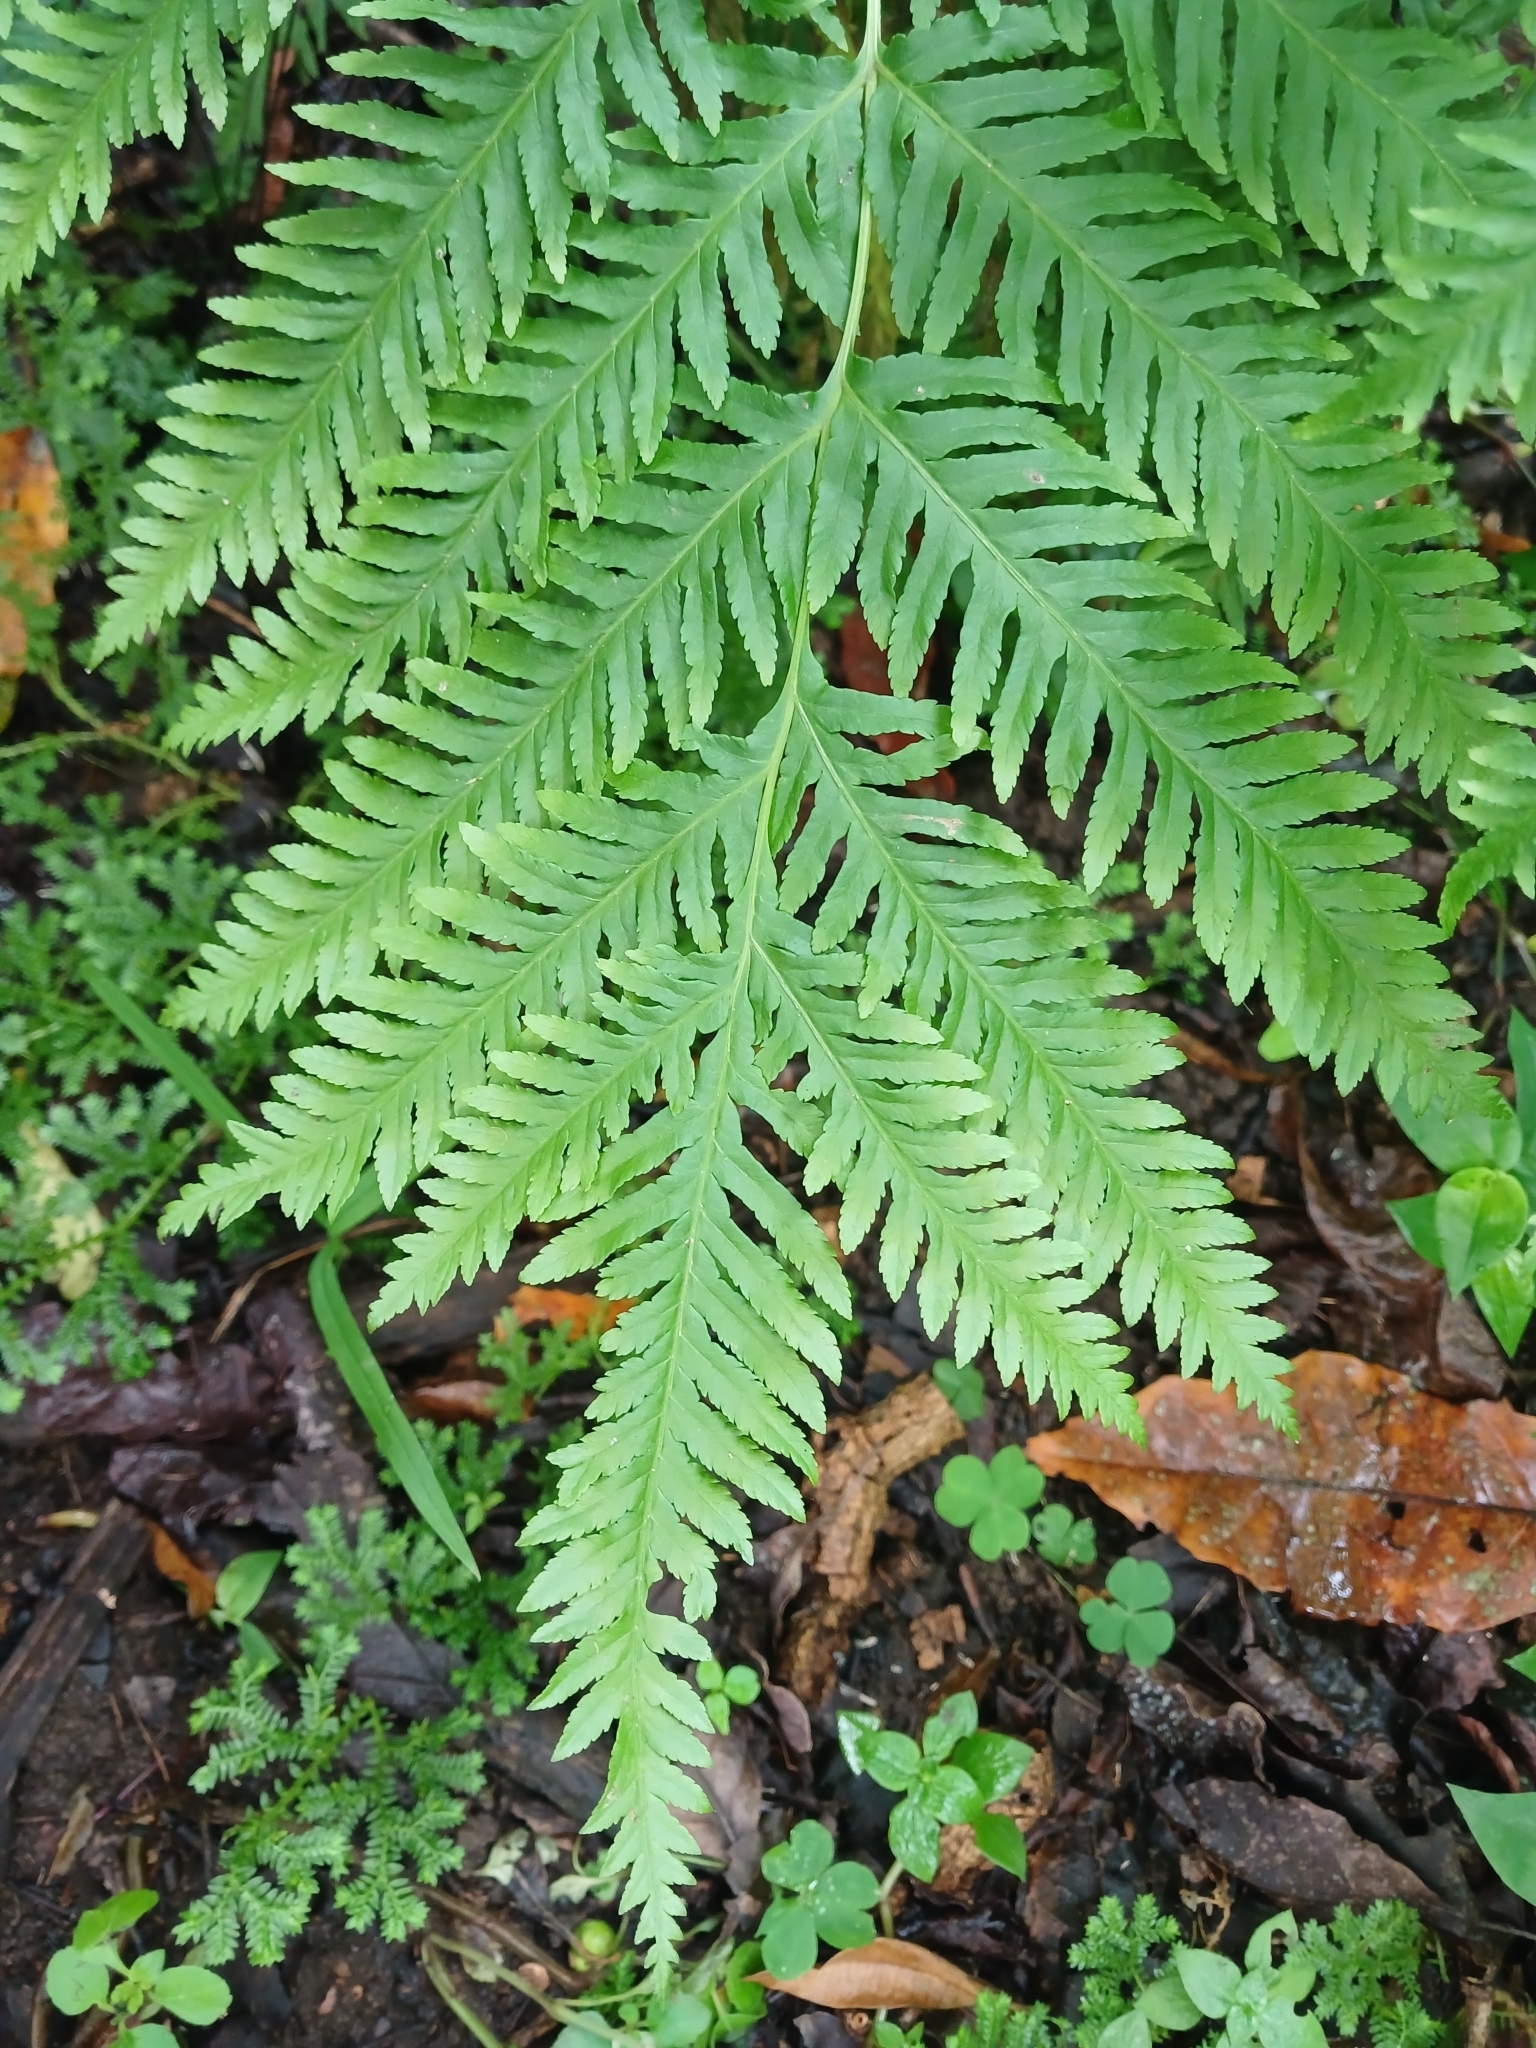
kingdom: Plantae
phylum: Tracheophyta
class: Polypodiopsida
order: Polypodiales
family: Pteridaceae
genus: Pteris
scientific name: Pteris dentata
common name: Toothed brake
